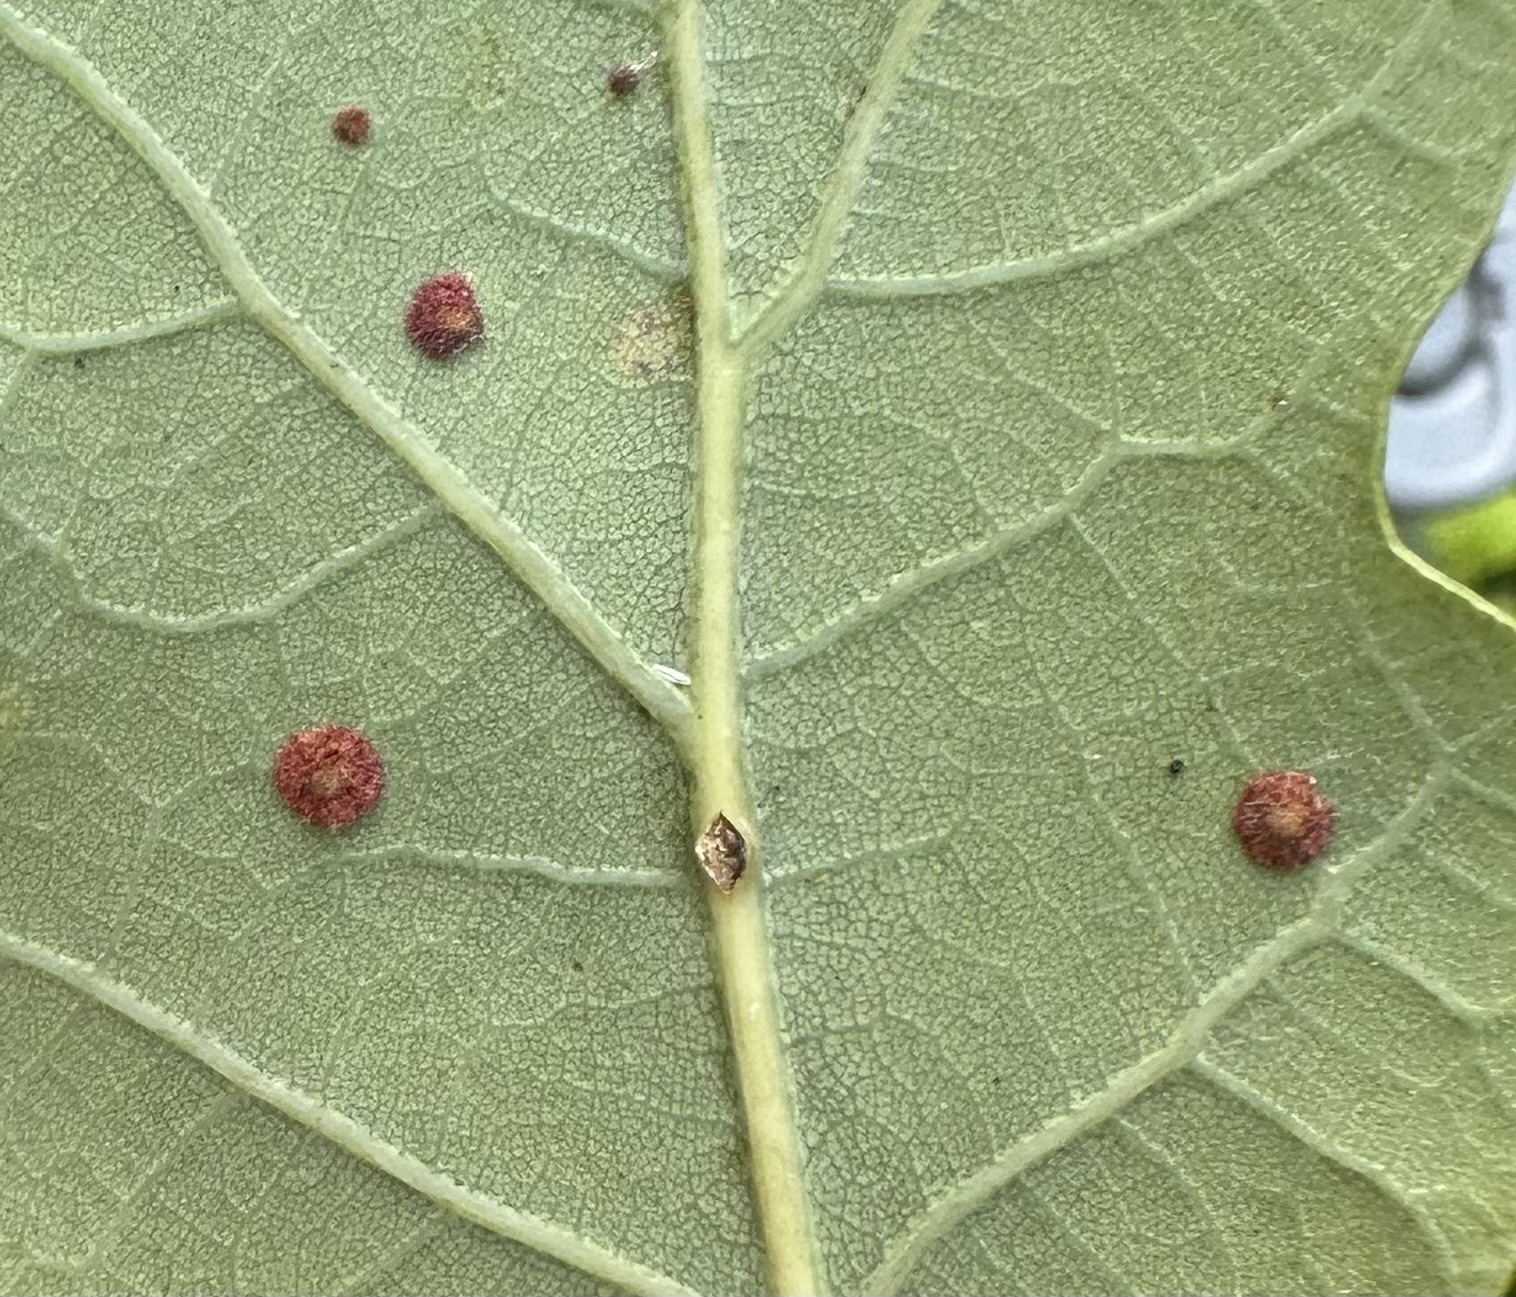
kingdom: Animalia
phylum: Arthropoda
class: Insecta
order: Hymenoptera
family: Cynipidae
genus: Neuroterus
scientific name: Neuroterus quercusbaccarum
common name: Common spangle gall
